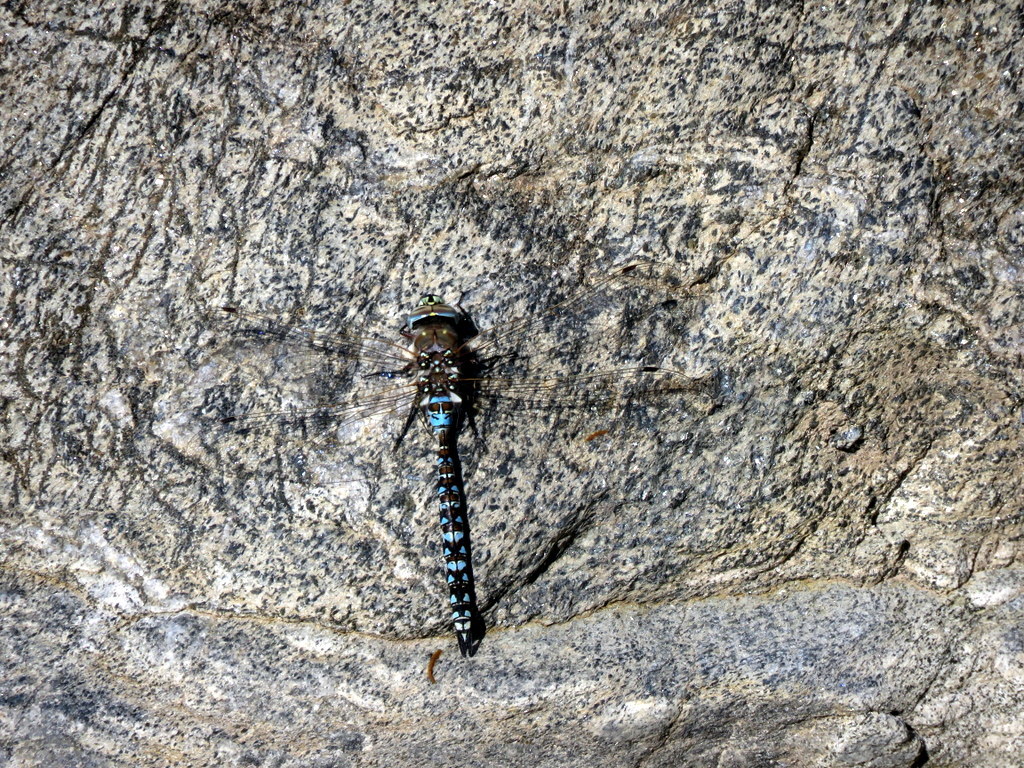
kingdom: Animalia
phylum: Arthropoda
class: Insecta
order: Odonata
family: Aeshnidae
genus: Rhionaeschna
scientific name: Rhionaeschna variegata
